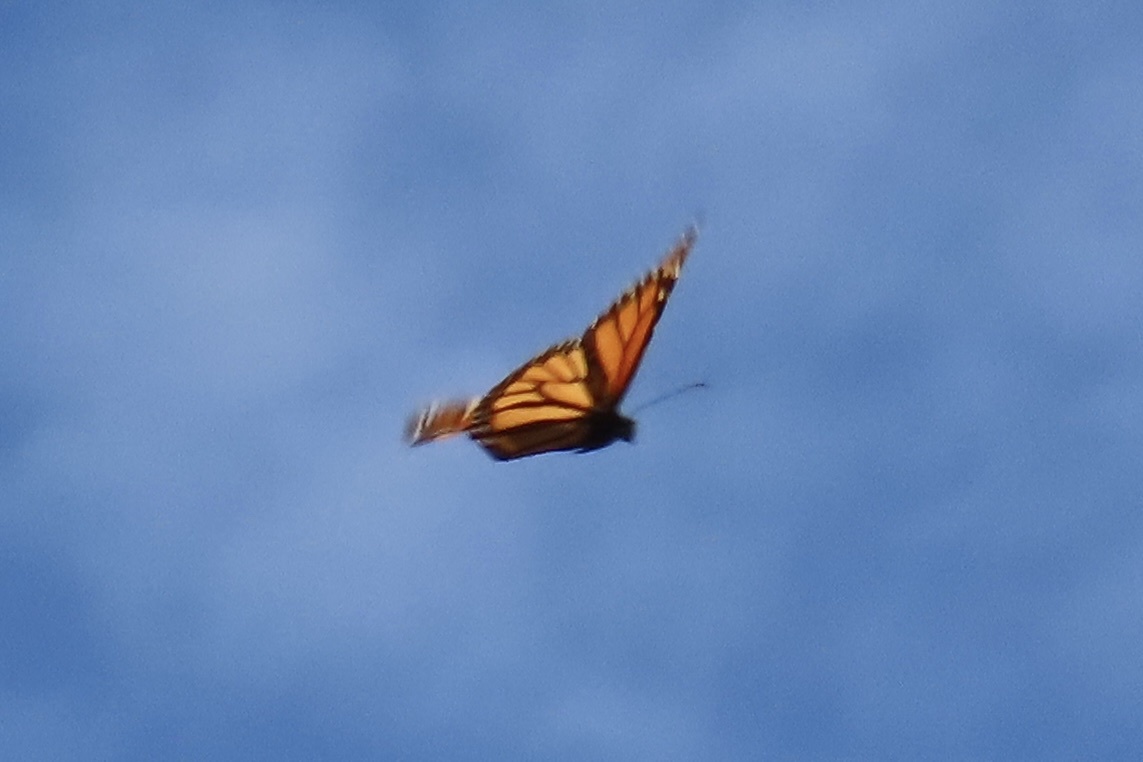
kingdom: Animalia
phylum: Arthropoda
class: Insecta
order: Lepidoptera
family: Nymphalidae
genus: Danaus
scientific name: Danaus plexippus
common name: Monarch
